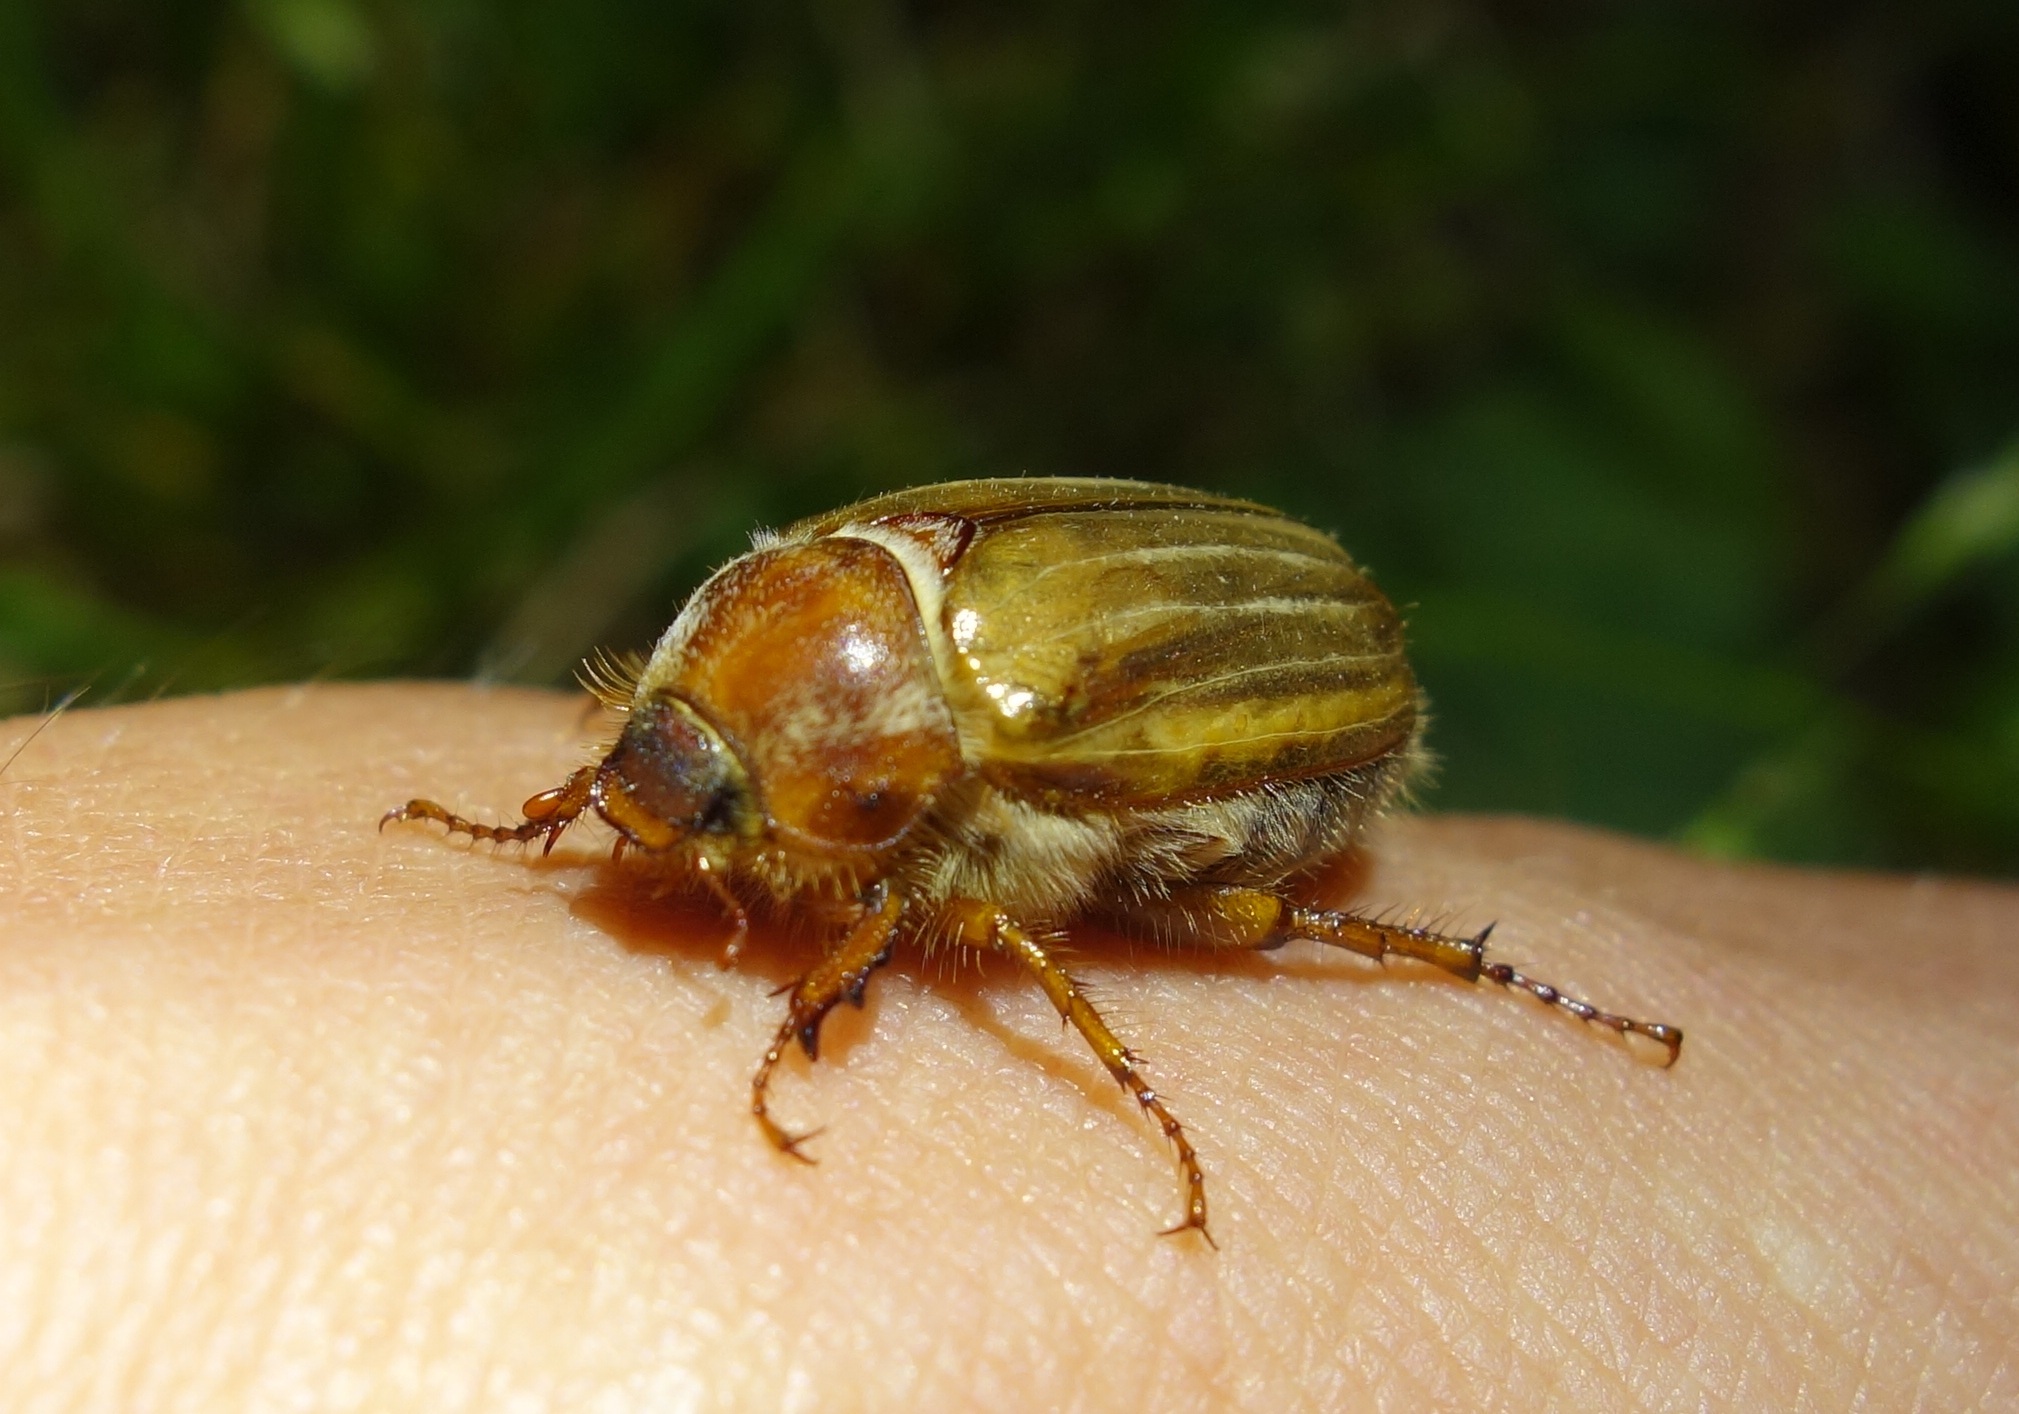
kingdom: Animalia
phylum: Arthropoda
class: Insecta
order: Coleoptera
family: Scarabaeidae
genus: Amphimallon
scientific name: Amphimallon solstitiale
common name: Summer chafer
